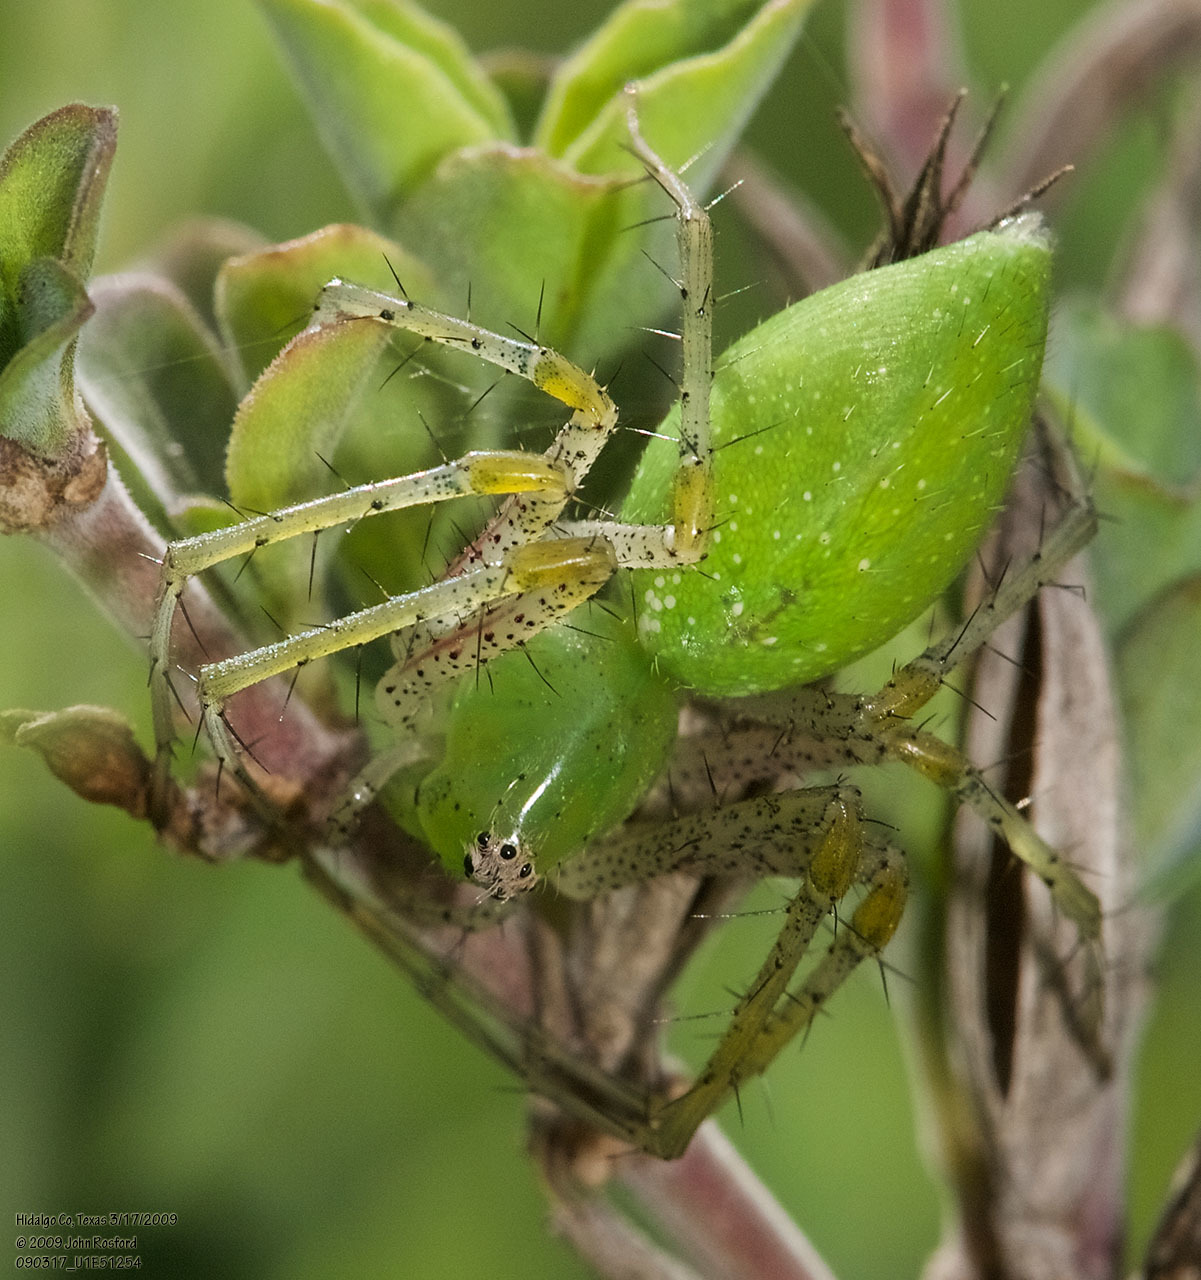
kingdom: Animalia
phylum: Arthropoda
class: Arachnida
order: Araneae
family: Oxyopidae
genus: Peucetia
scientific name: Peucetia longipalpis
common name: Lynx spiders
